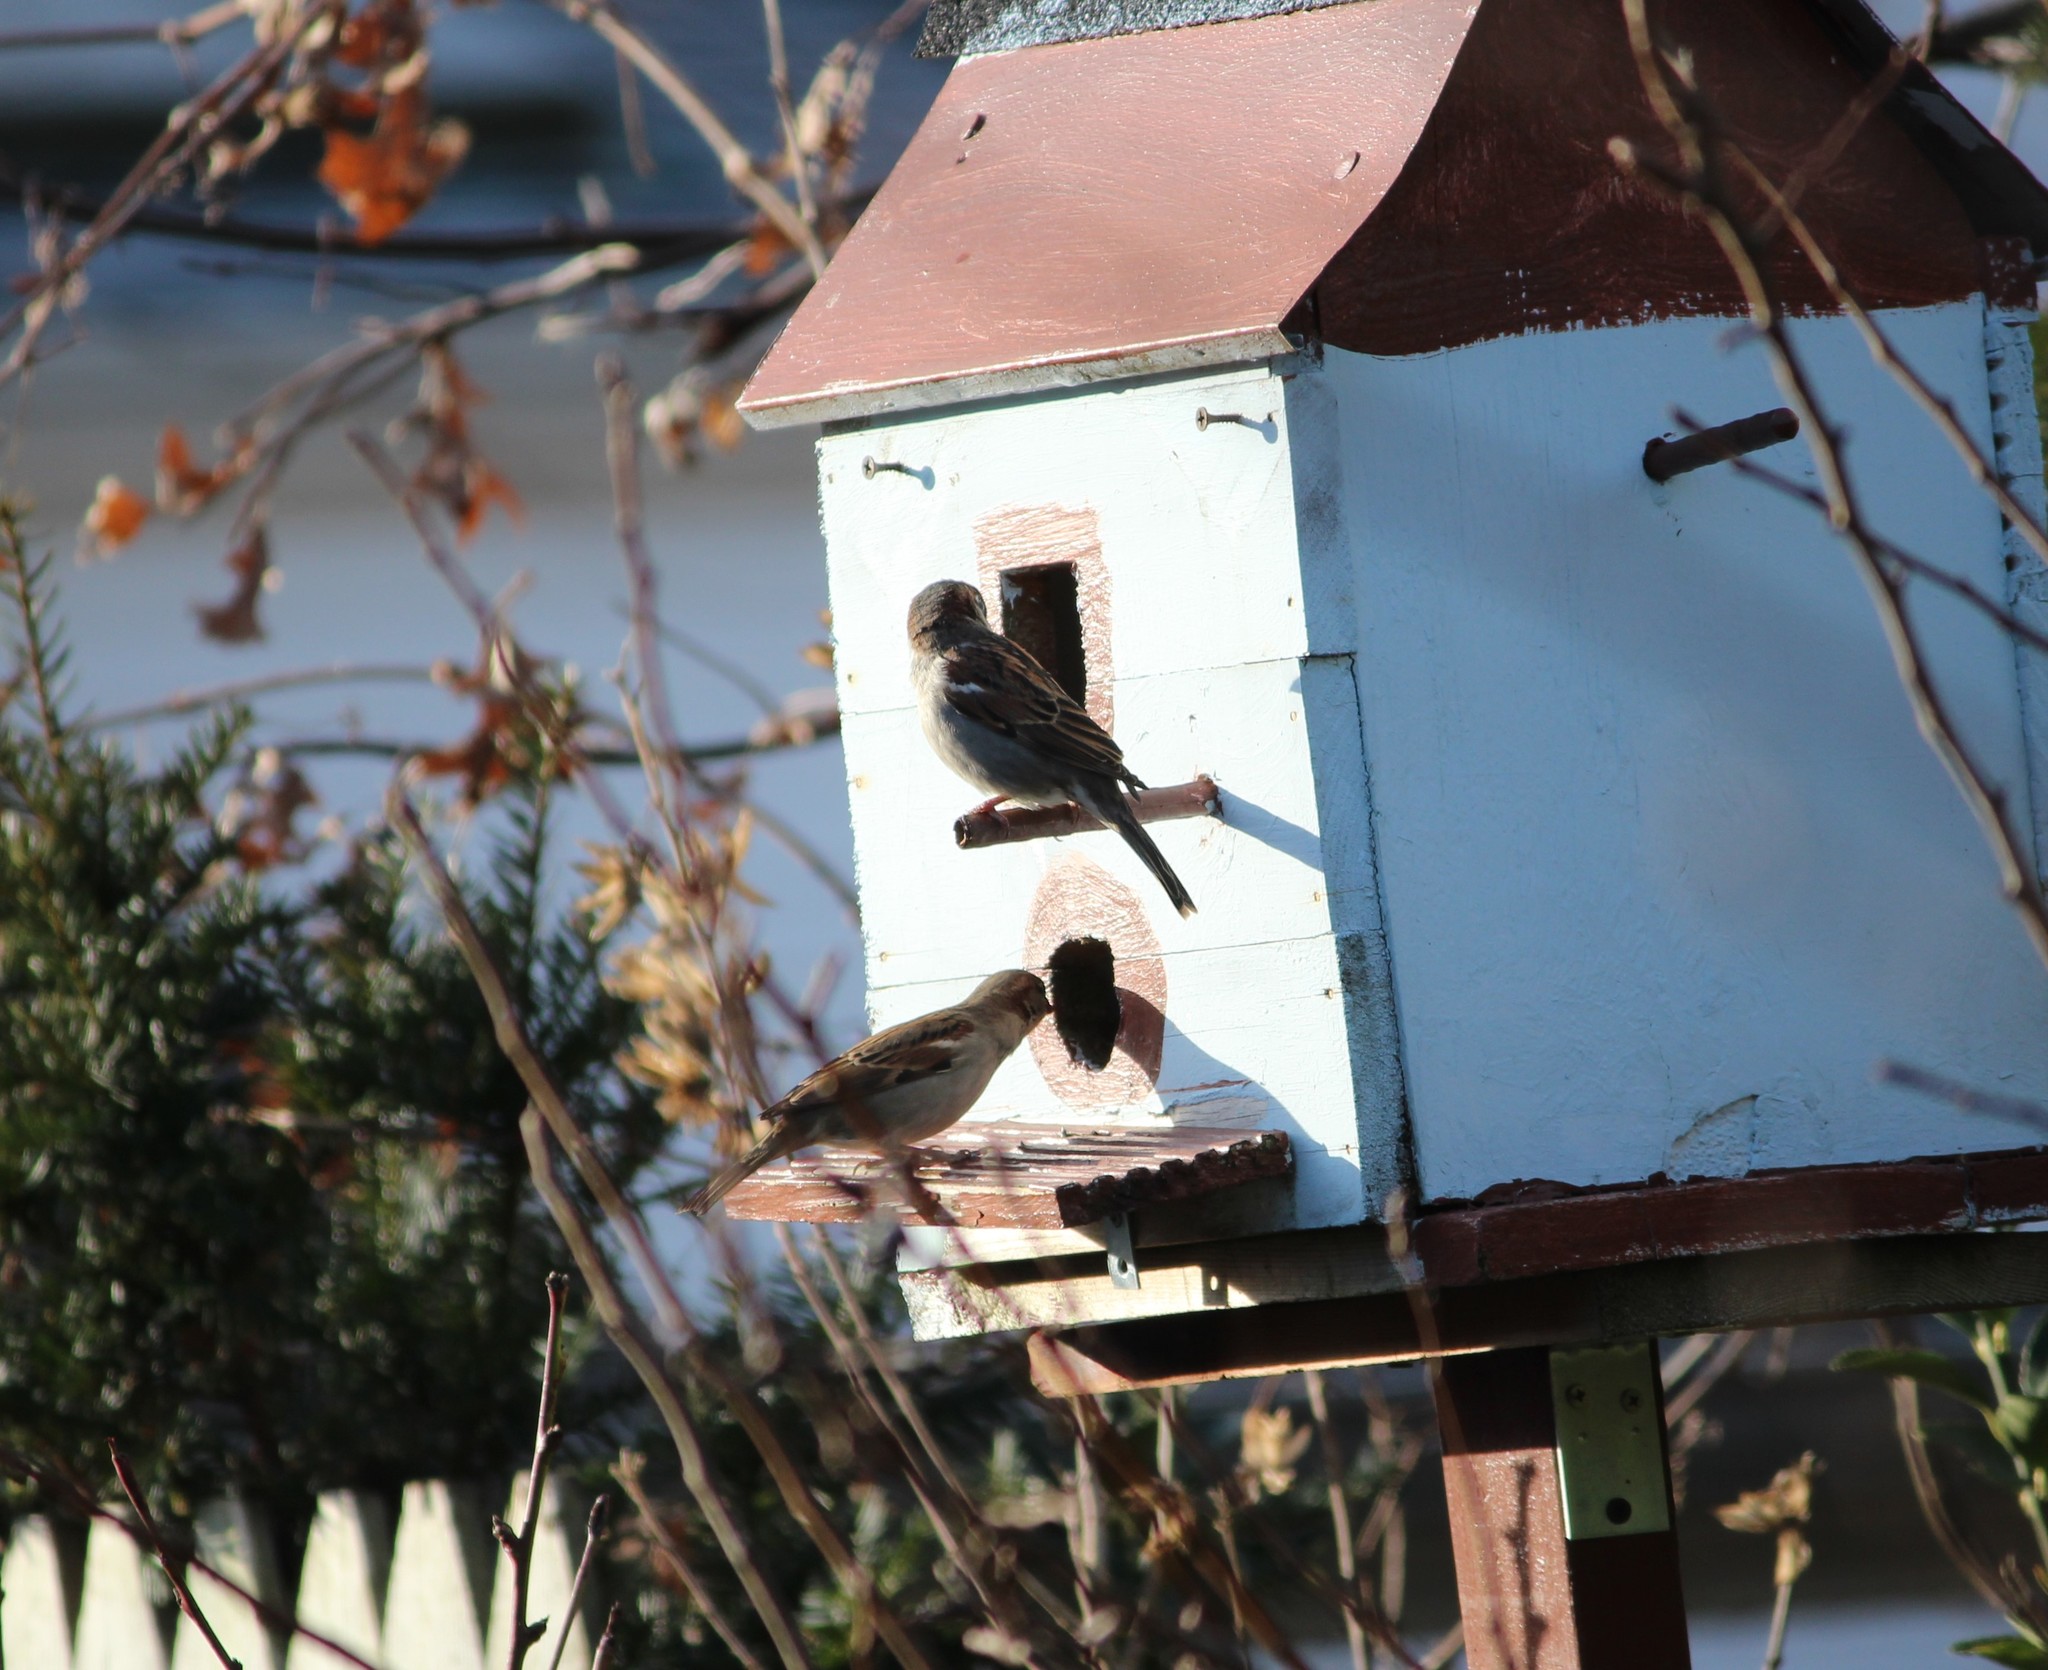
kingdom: Animalia
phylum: Chordata
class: Aves
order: Passeriformes
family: Passeridae
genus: Passer
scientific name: Passer domesticus
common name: House sparrow
